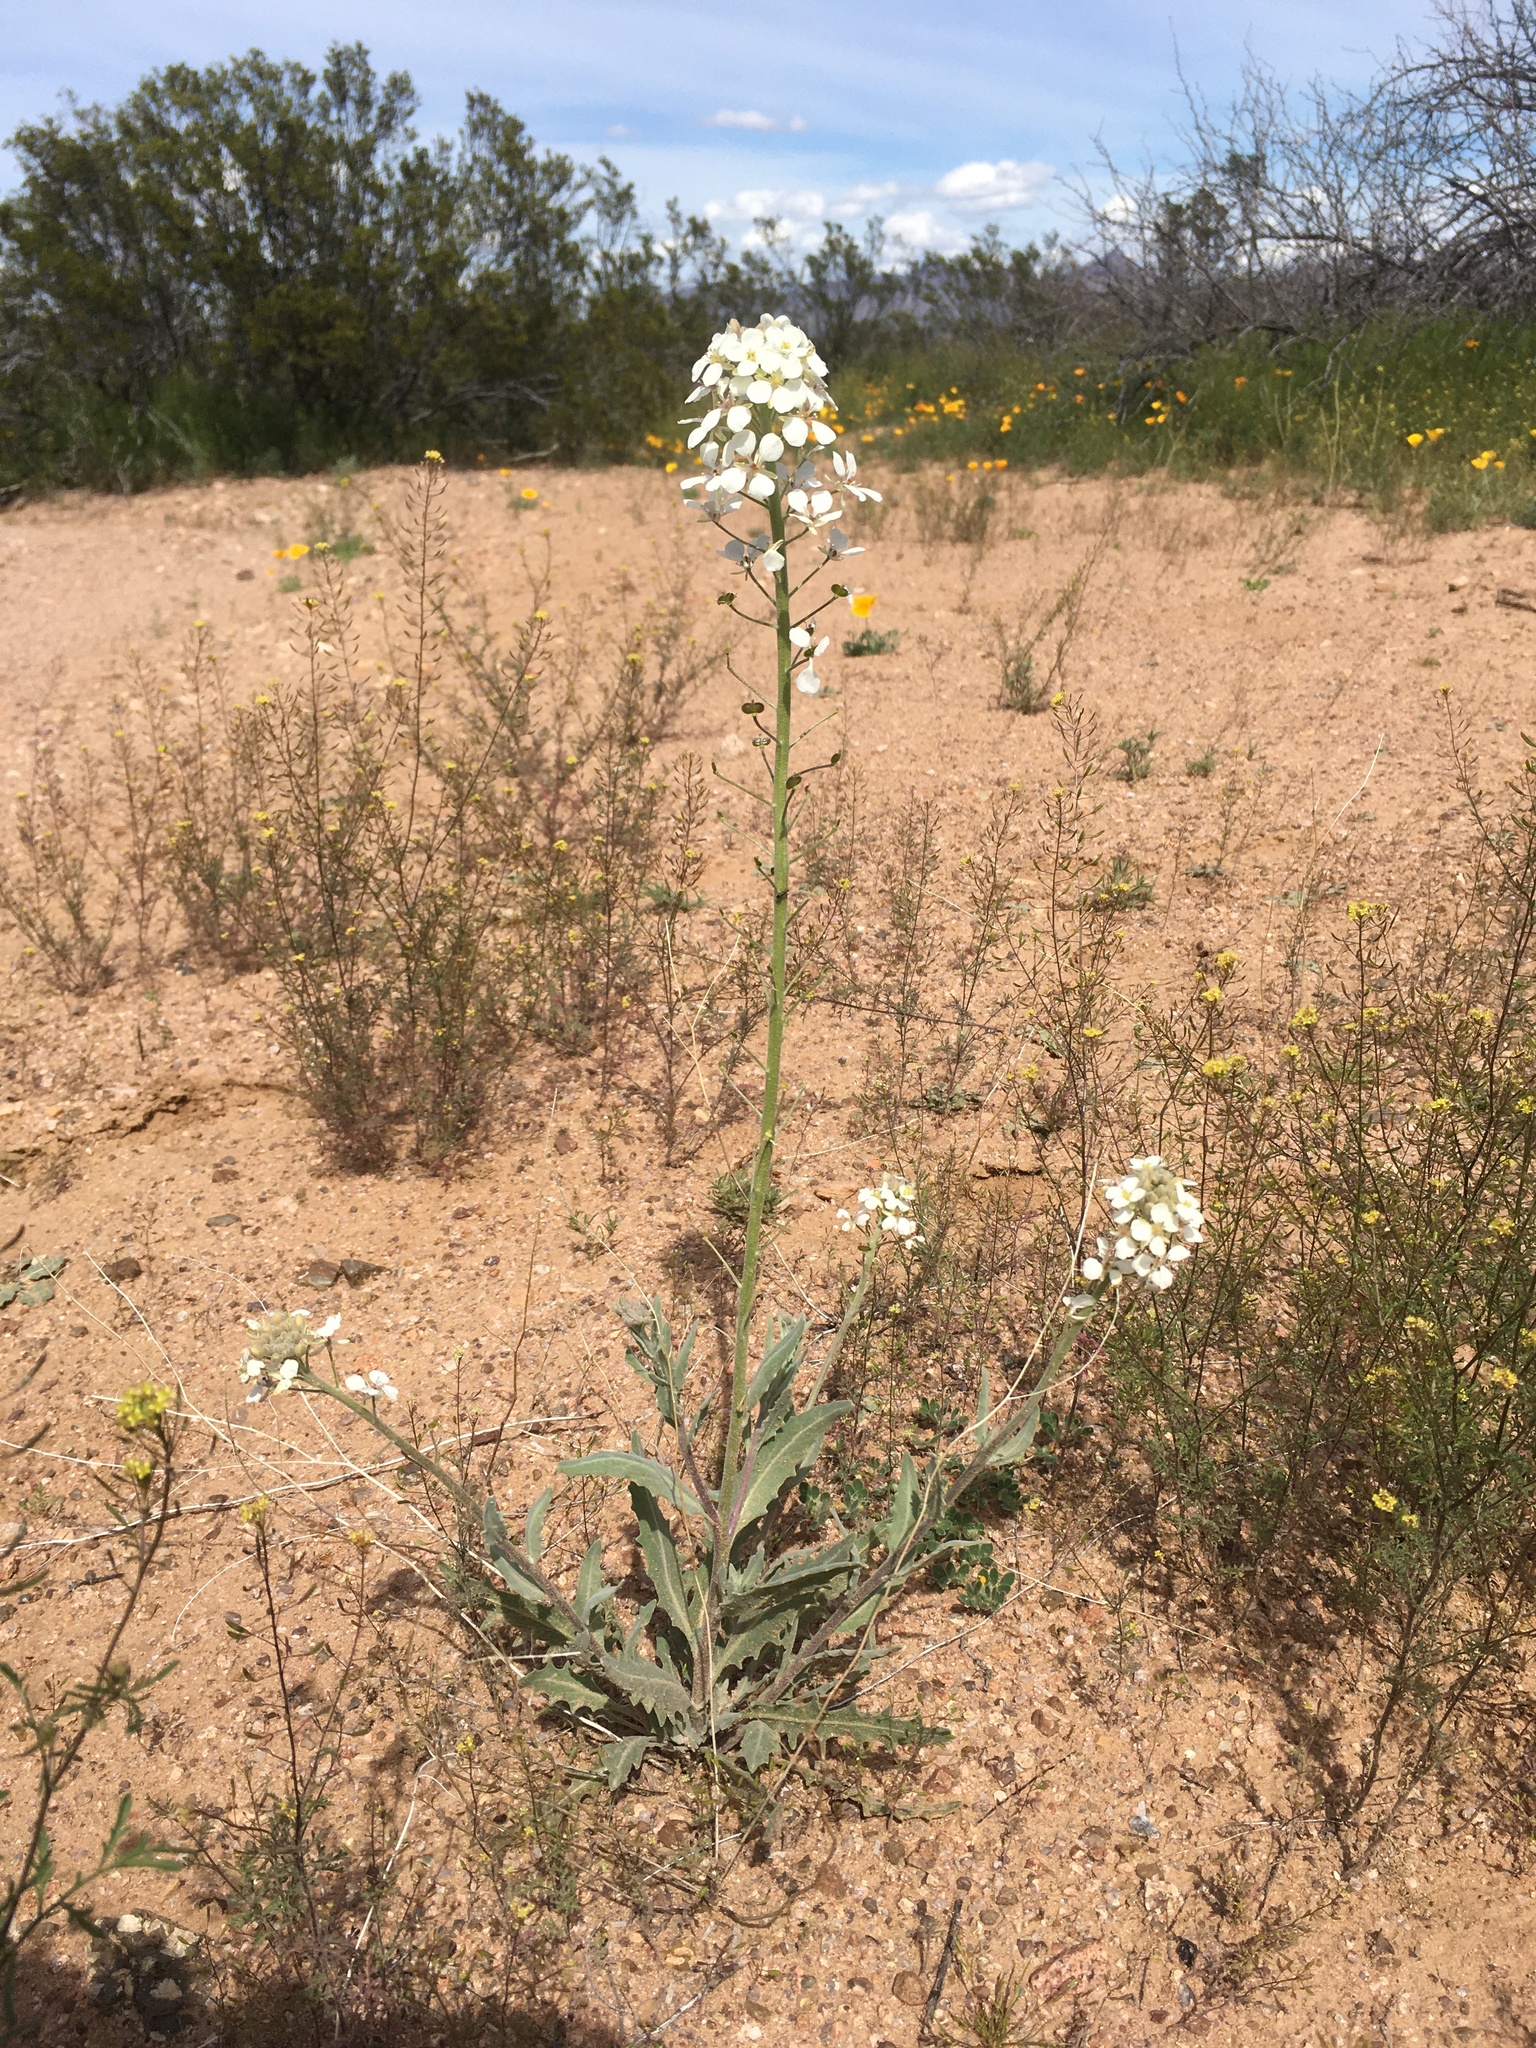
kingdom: Plantae
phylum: Tracheophyta
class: Magnoliopsida
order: Brassicales
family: Brassicaceae
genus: Dimorphocarpa
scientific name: Dimorphocarpa wislizenii
